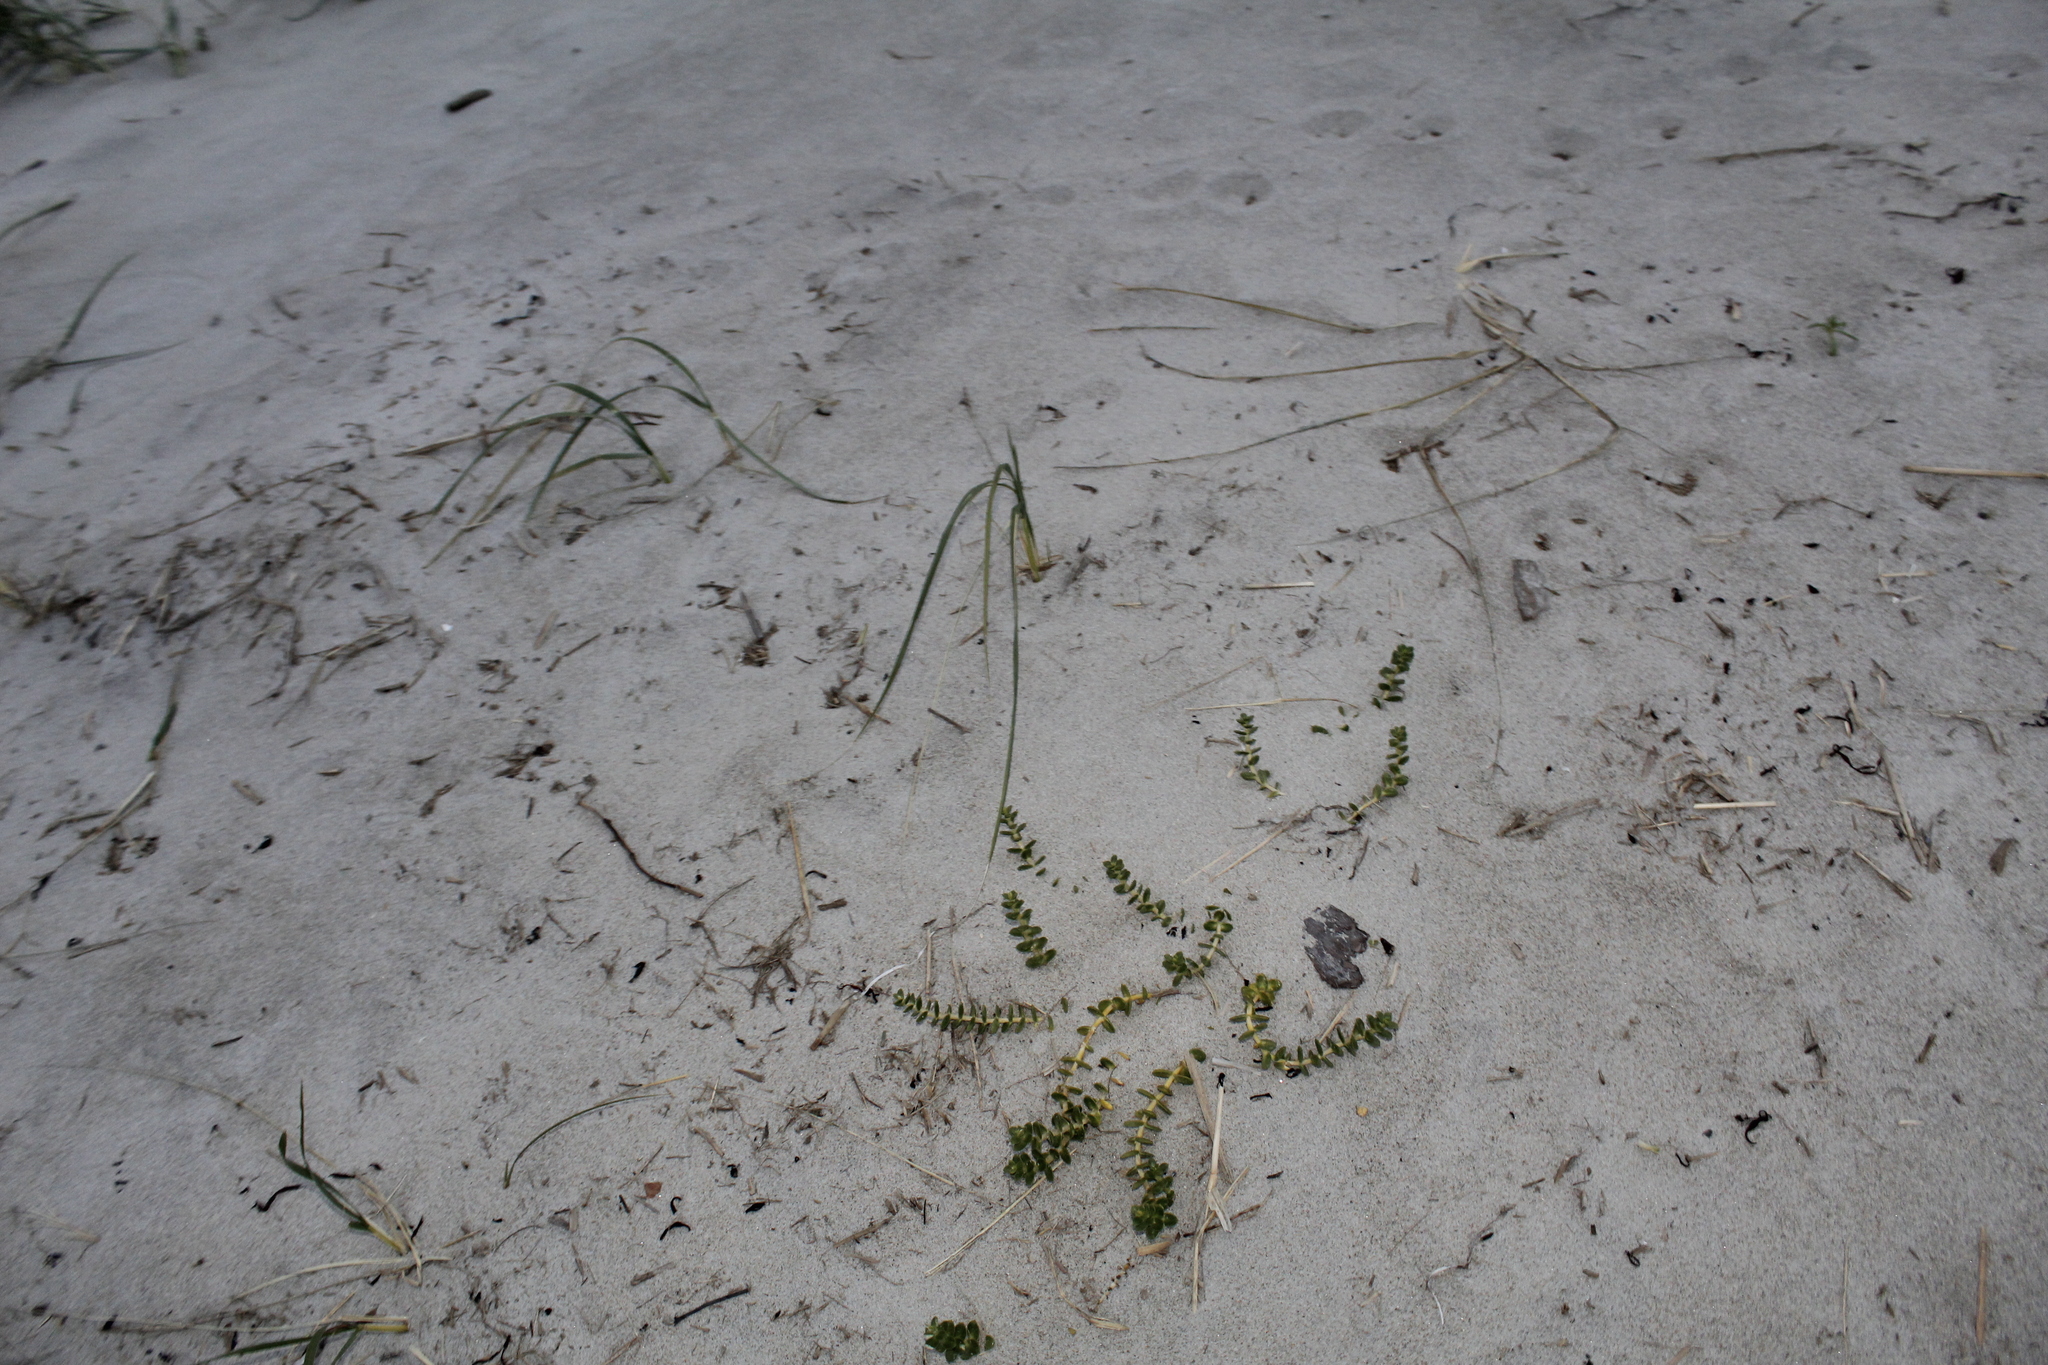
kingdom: Plantae
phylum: Tracheophyta
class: Magnoliopsida
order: Caryophyllales
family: Caryophyllaceae
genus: Honckenya
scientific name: Honckenya peploides
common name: Sea sandwort
